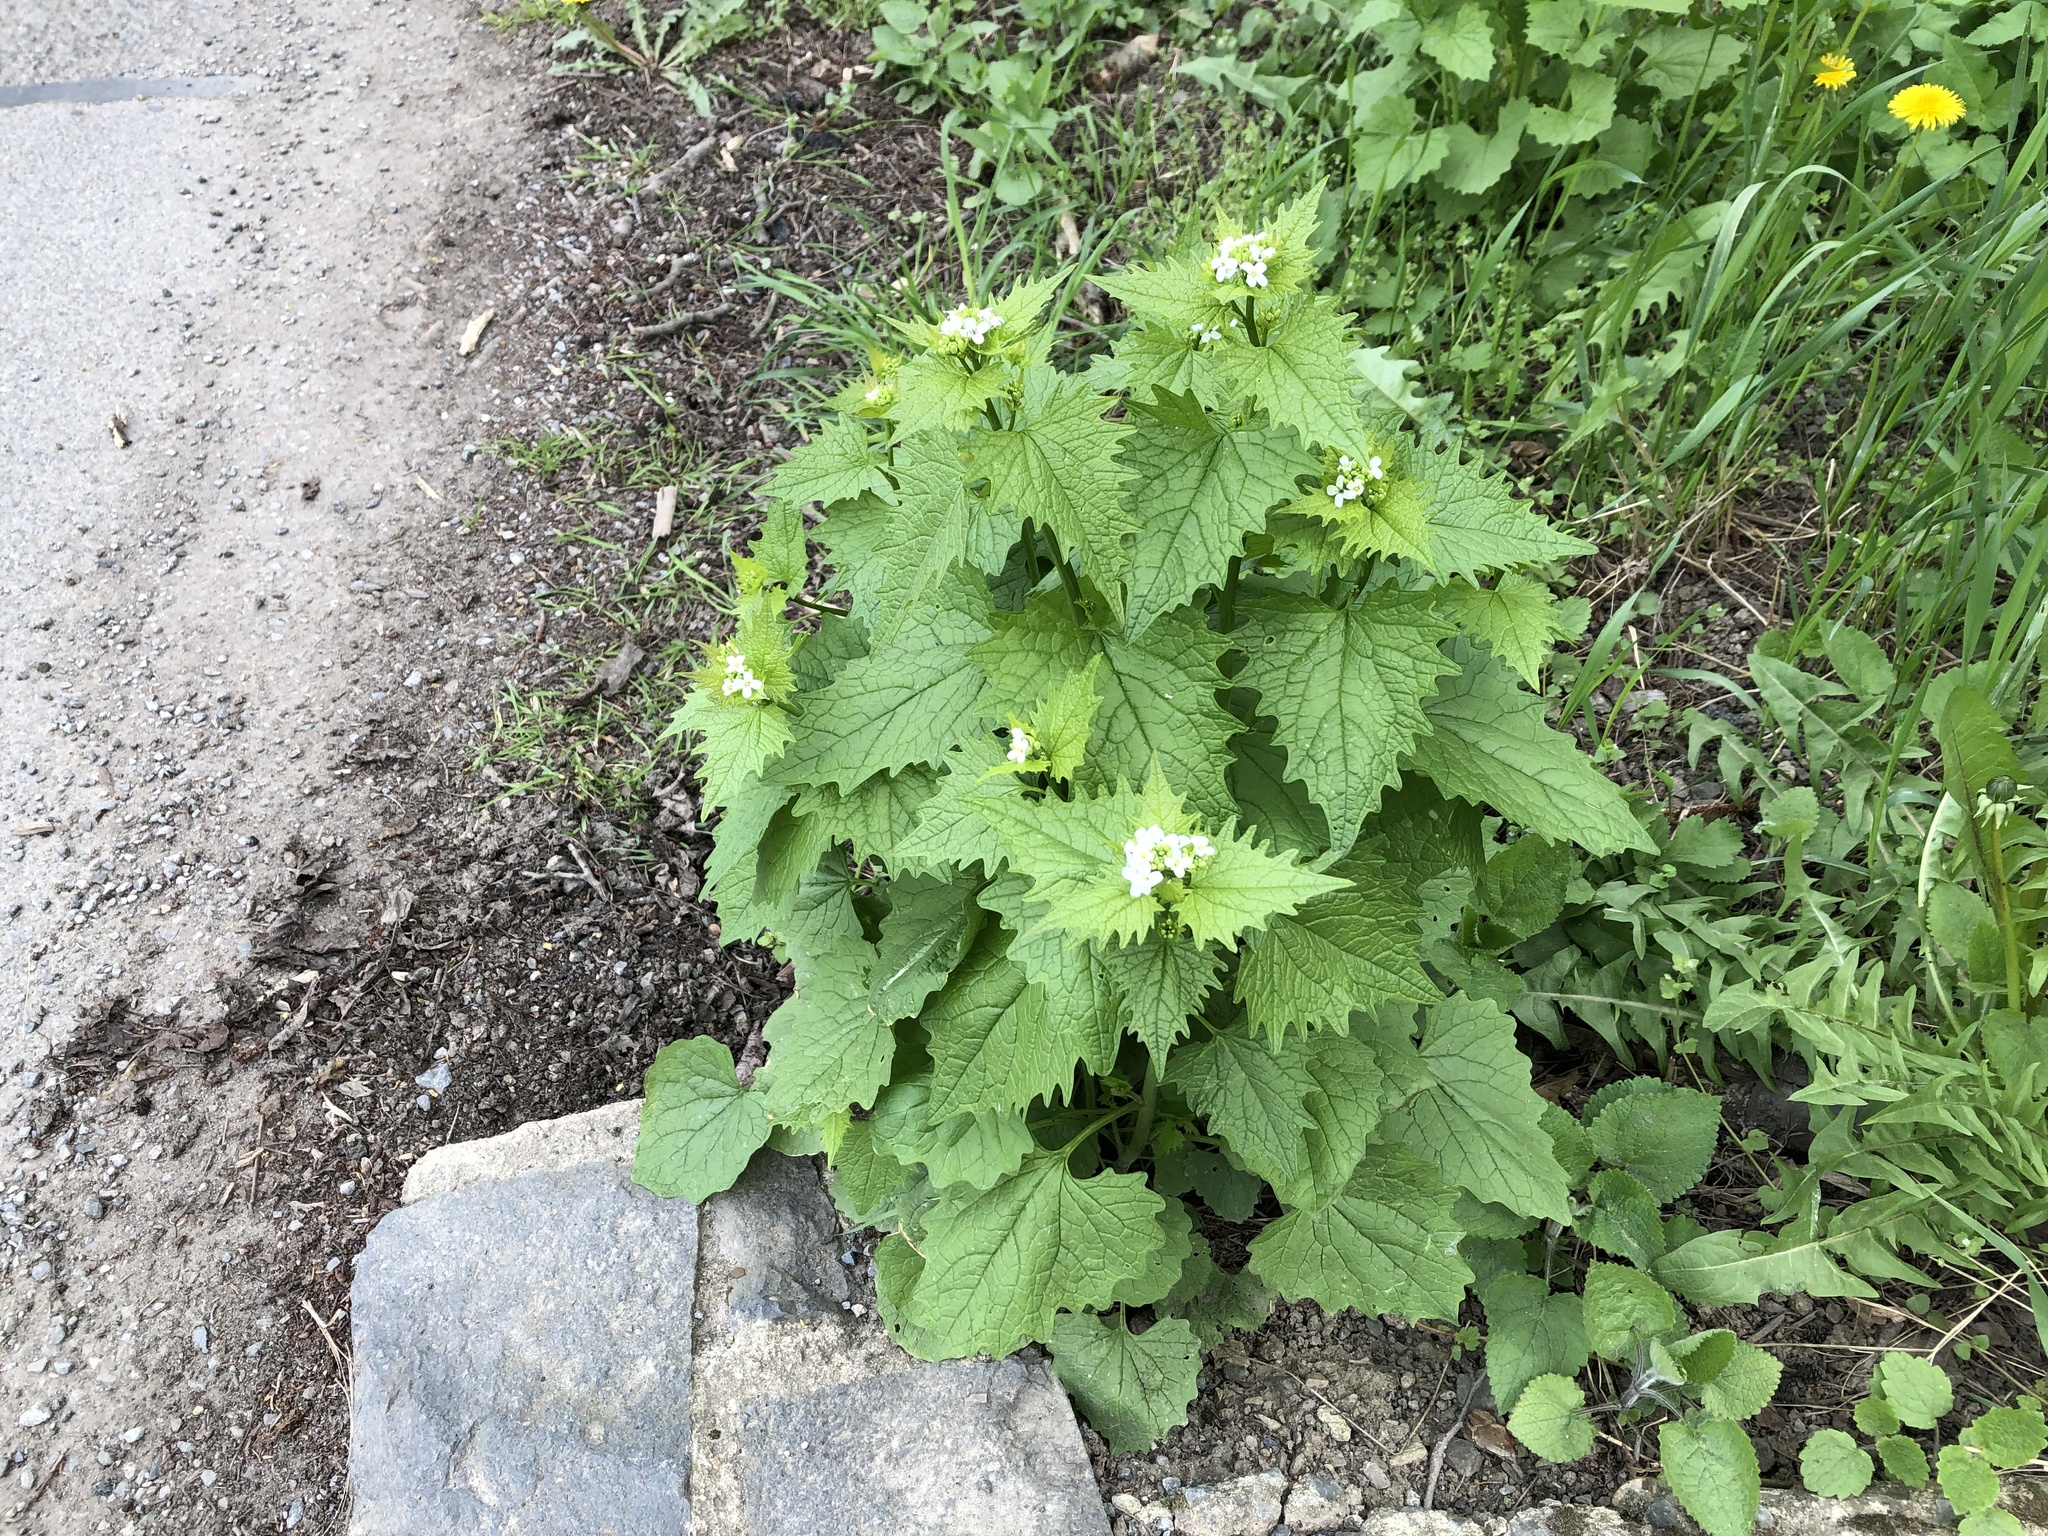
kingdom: Plantae
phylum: Tracheophyta
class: Magnoliopsida
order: Brassicales
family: Brassicaceae
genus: Alliaria
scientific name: Alliaria petiolata
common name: Garlic mustard
